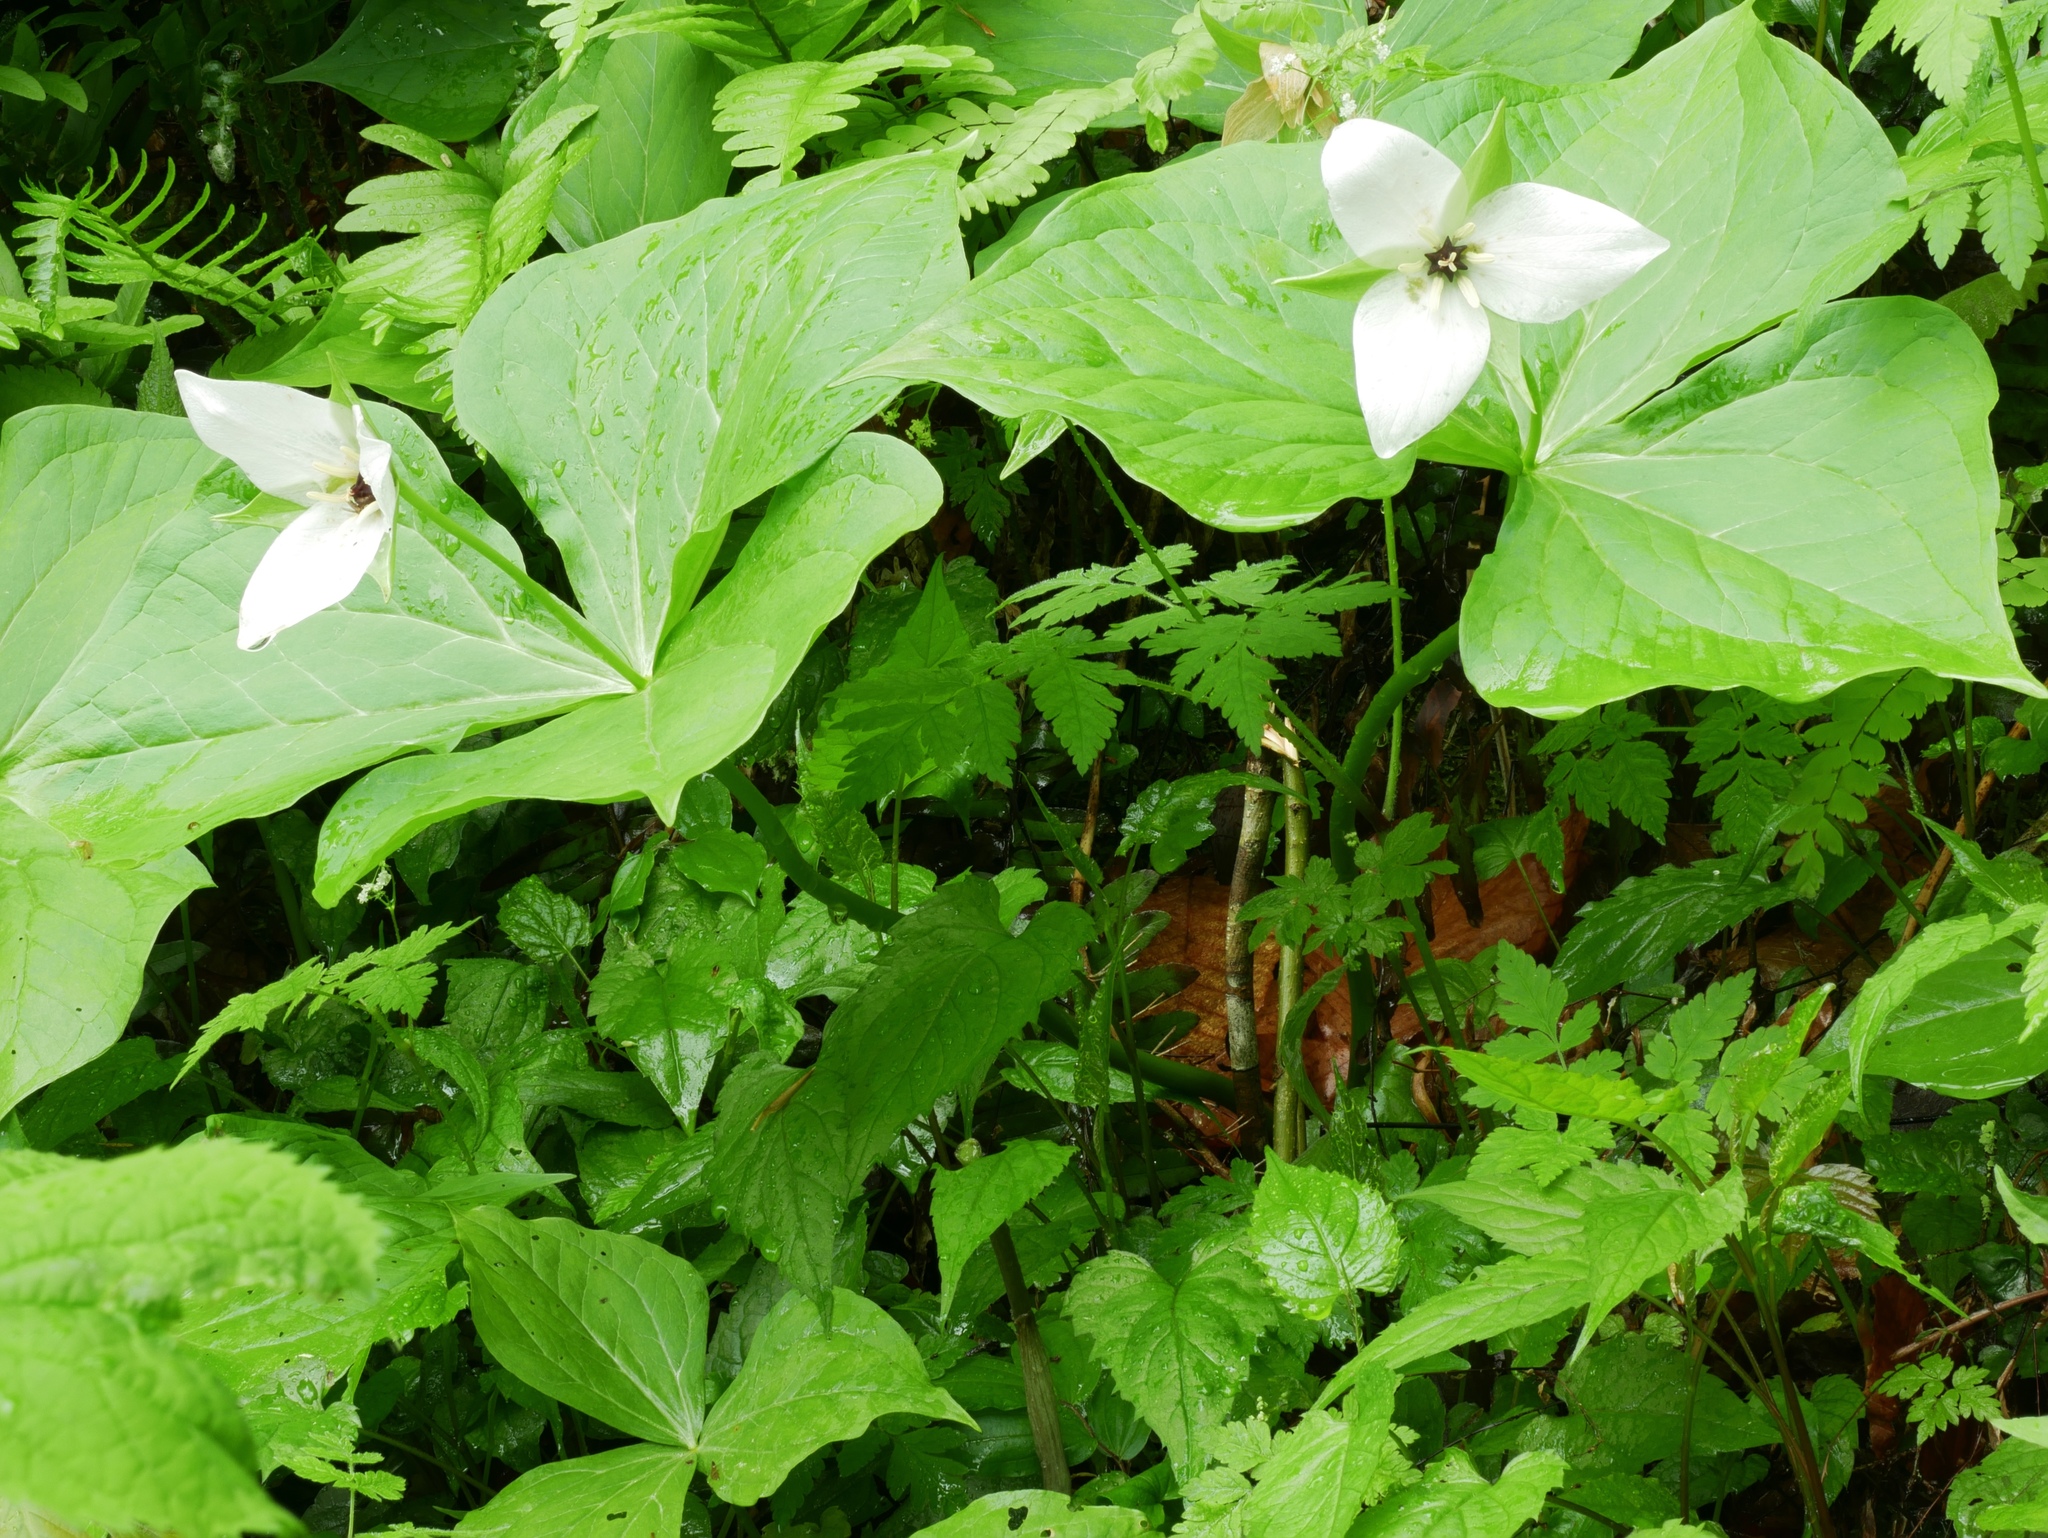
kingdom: Plantae
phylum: Tracheophyta
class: Liliopsida
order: Liliales
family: Melanthiaceae
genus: Trillium
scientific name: Trillium simile
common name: Confusing trillium
